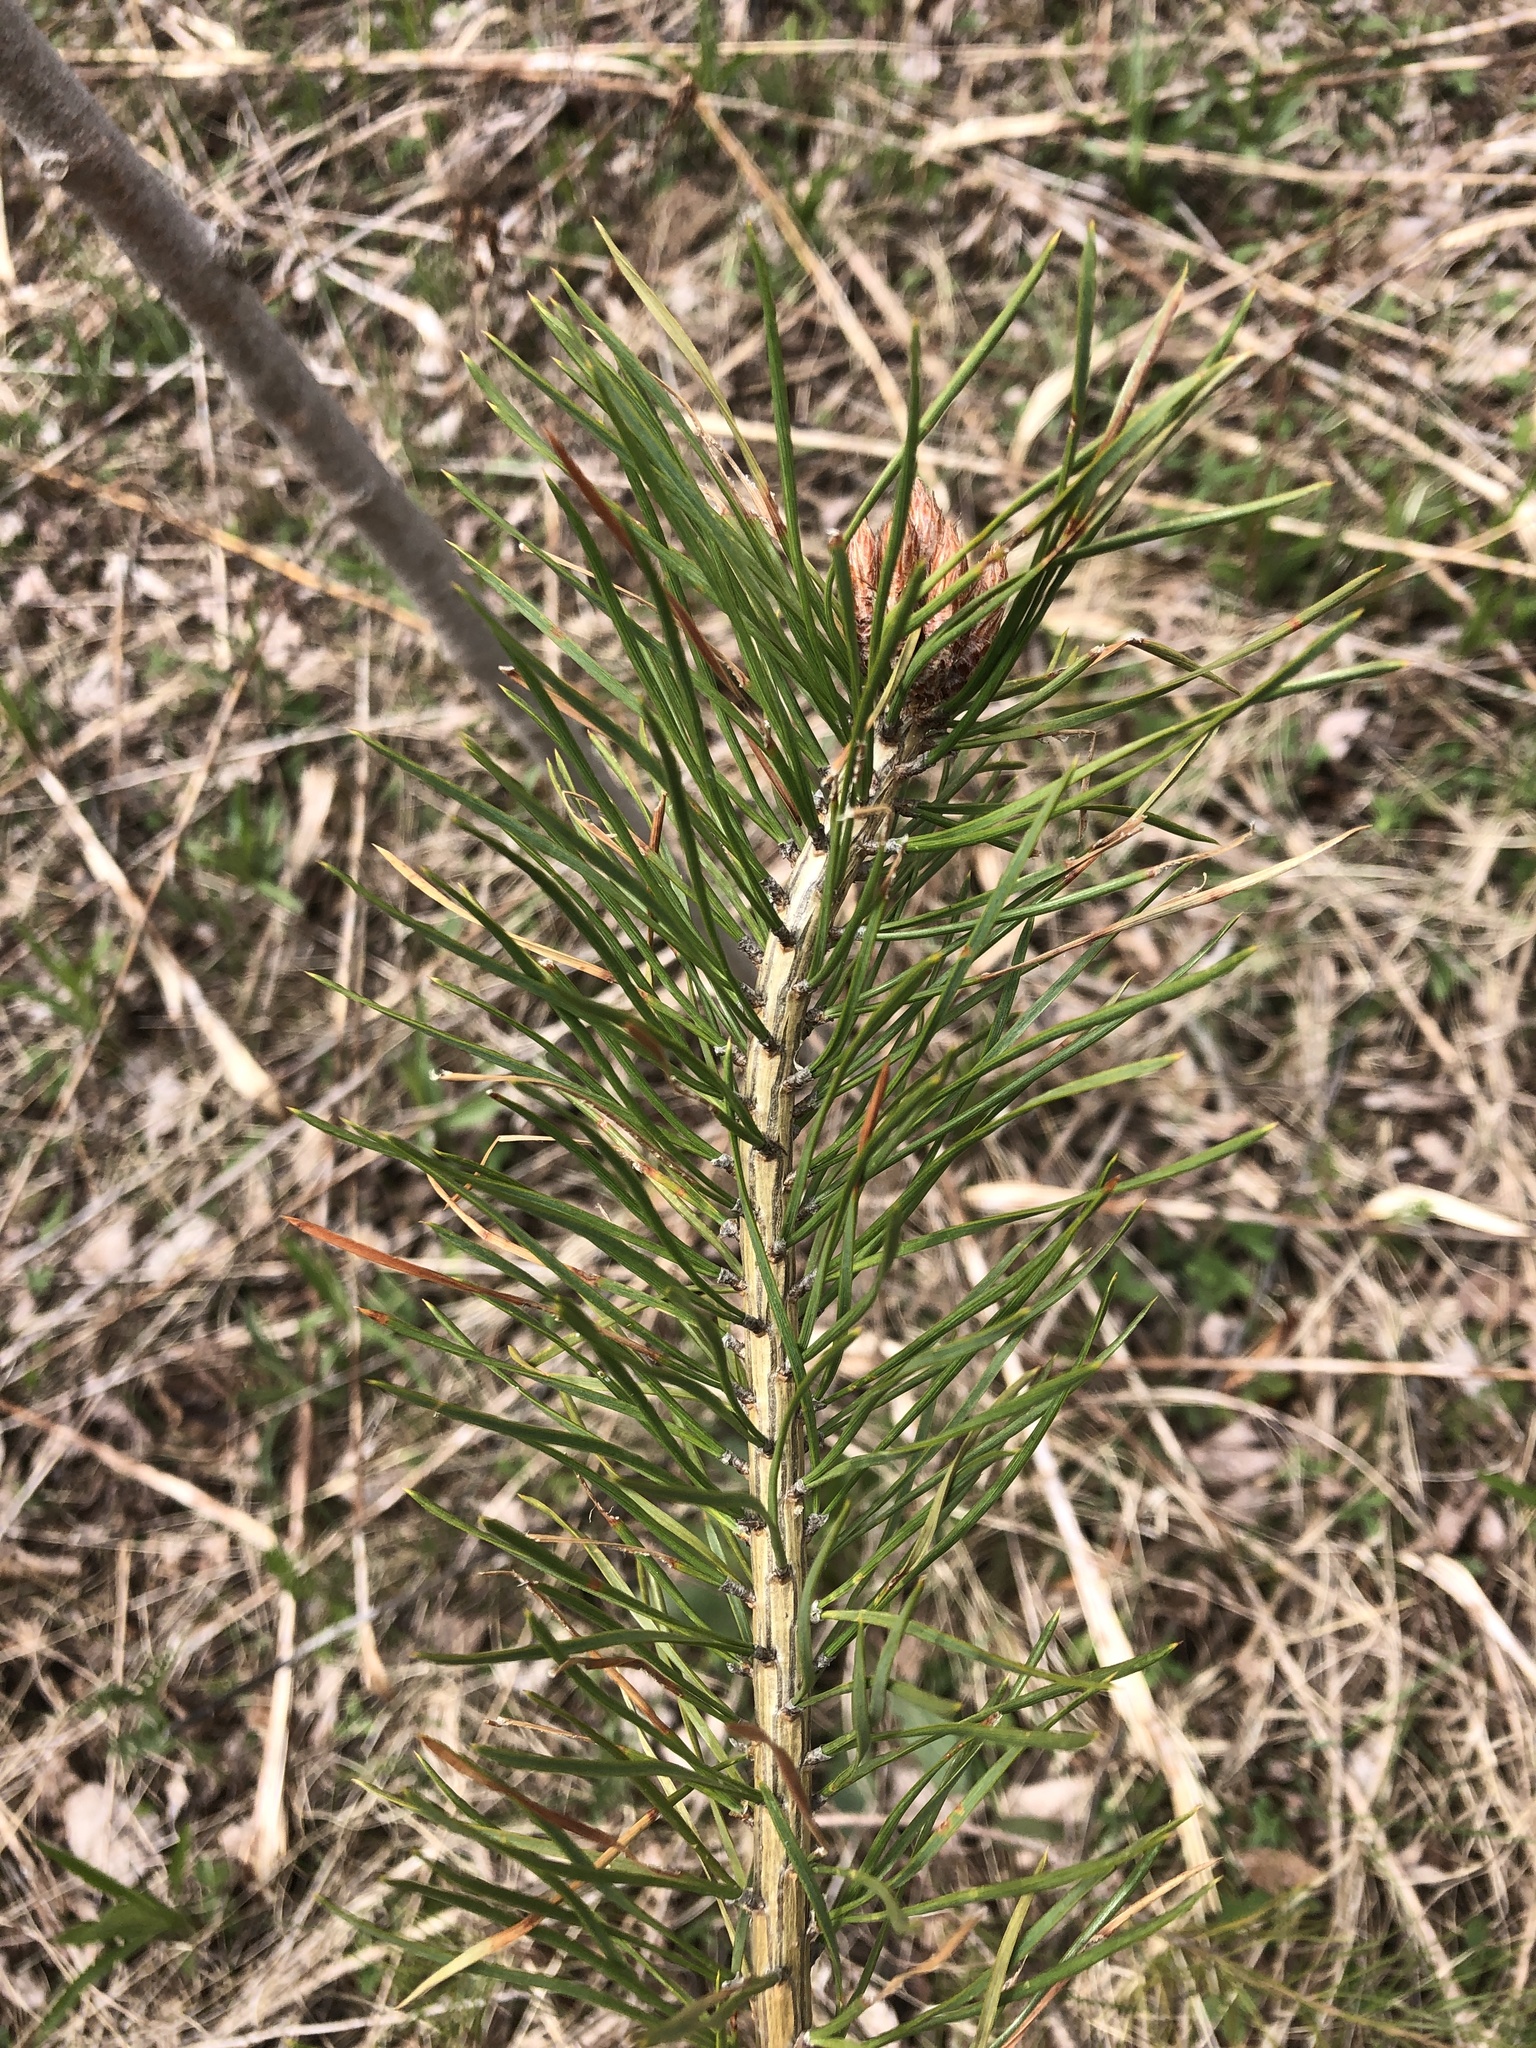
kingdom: Plantae
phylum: Tracheophyta
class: Pinopsida
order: Pinales
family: Pinaceae
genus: Pinus
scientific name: Pinus sylvestris
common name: Scots pine
